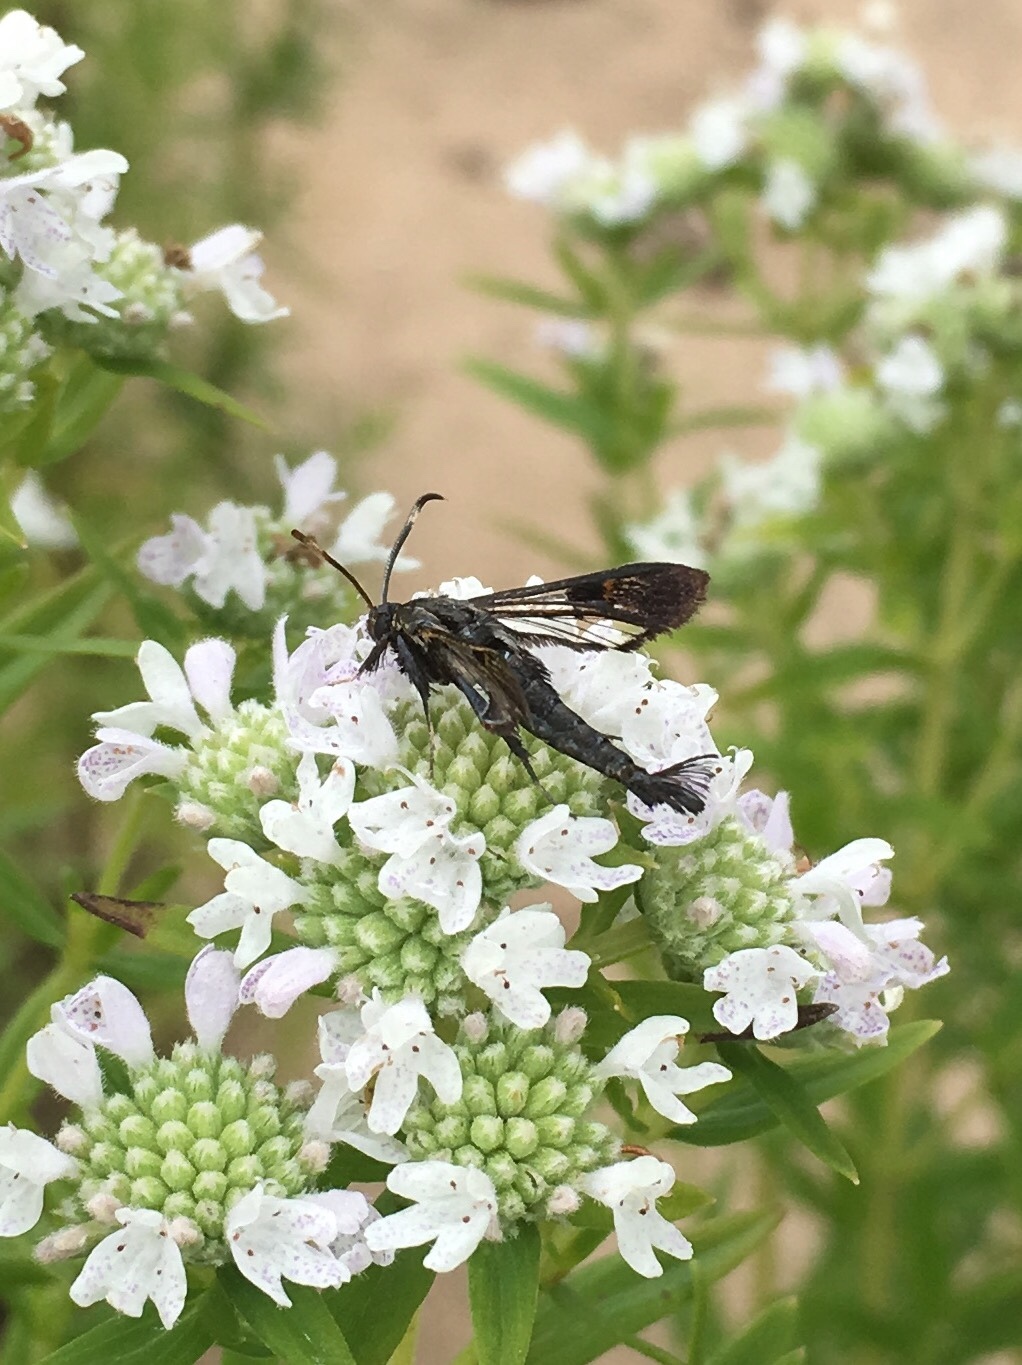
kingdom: Animalia
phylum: Arthropoda
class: Insecta
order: Lepidoptera
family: Sesiidae
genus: Albuna
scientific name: Albuna fraxini
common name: Virginia creeper clearwing
